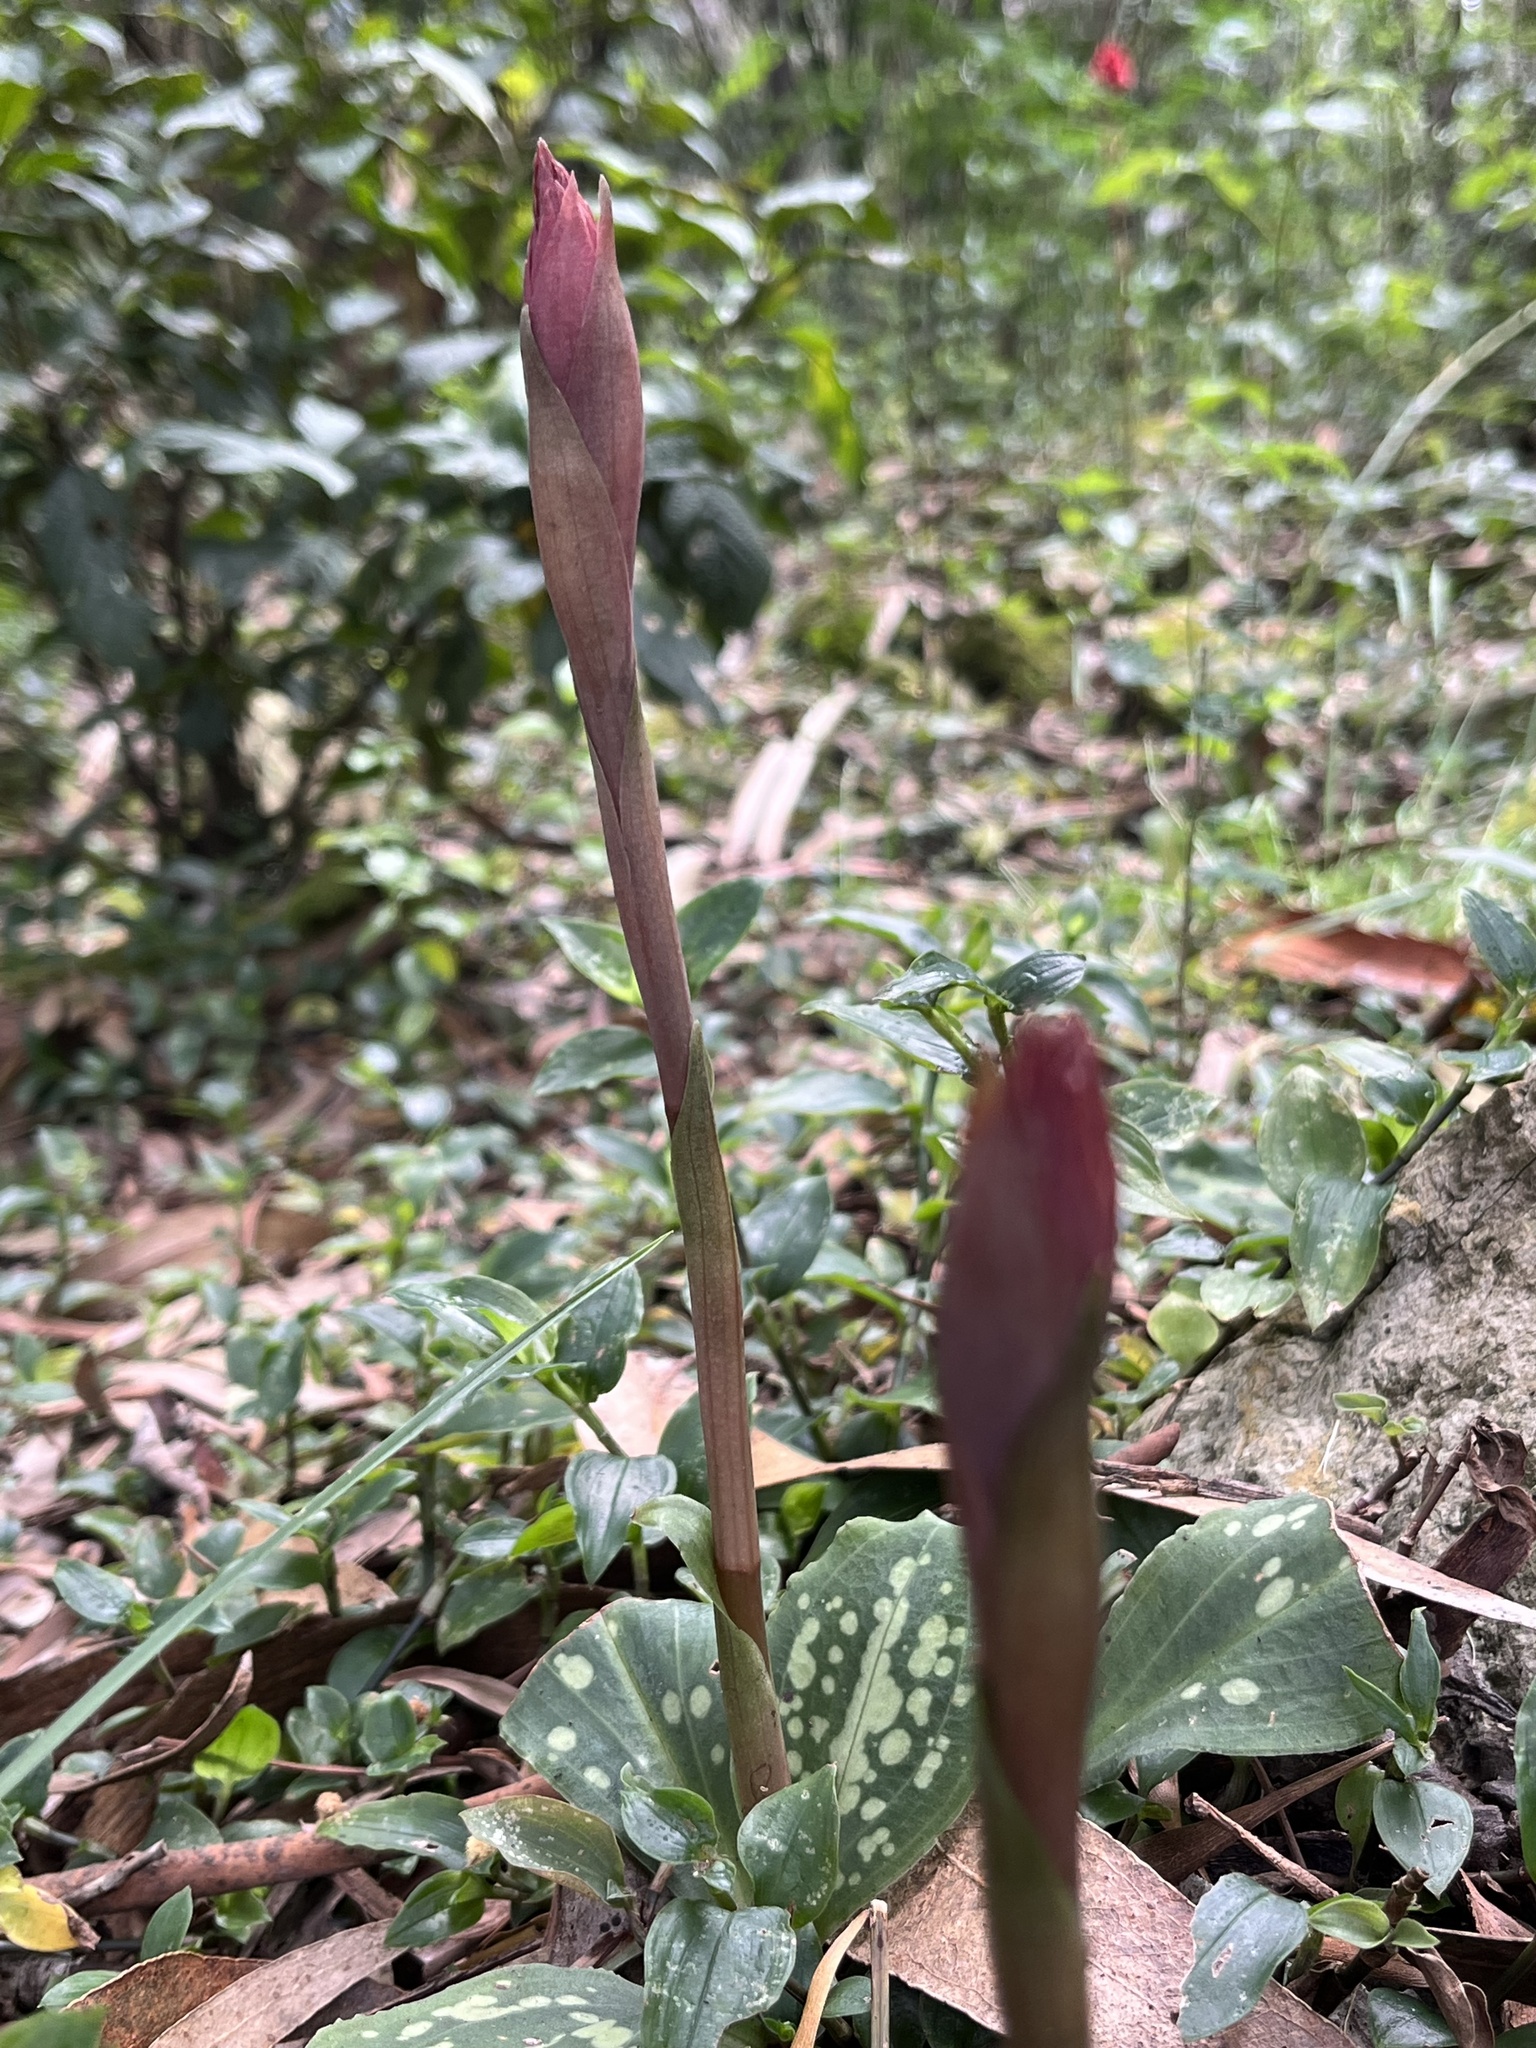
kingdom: Plantae
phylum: Tracheophyta
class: Liliopsida
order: Asparagales
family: Orchidaceae
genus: Stenorrhynchos
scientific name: Stenorrhynchos albidomaculatum
